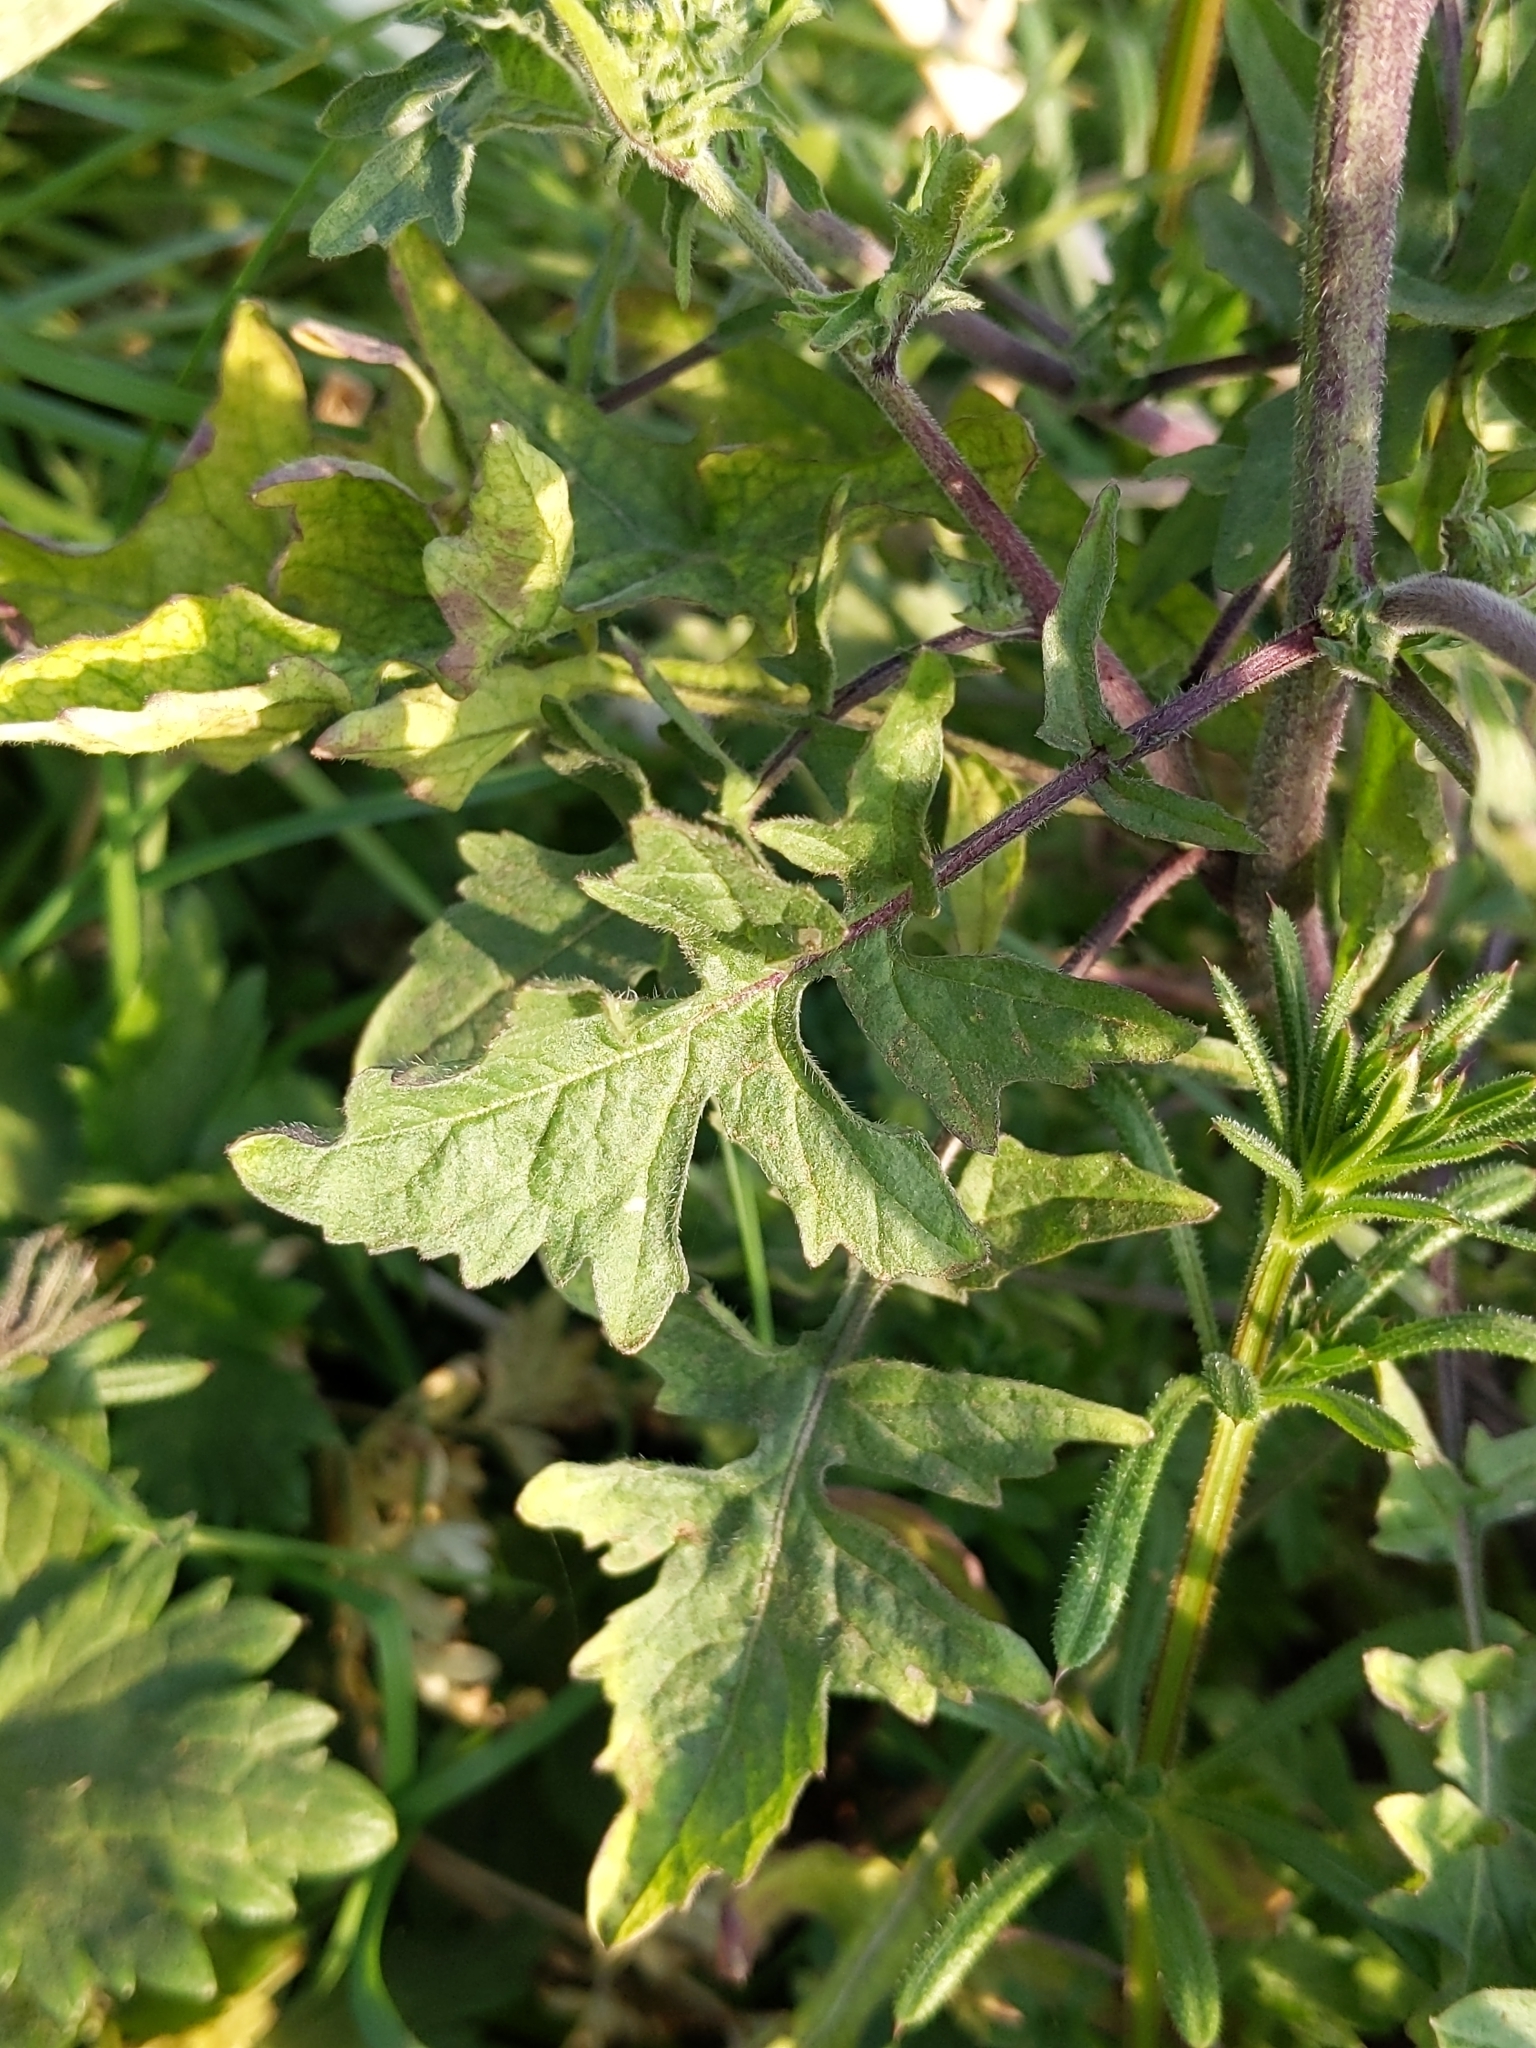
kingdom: Plantae
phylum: Tracheophyta
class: Magnoliopsida
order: Brassicales
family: Brassicaceae
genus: Sisymbrium
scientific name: Sisymbrium officinale
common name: Hedge mustard
